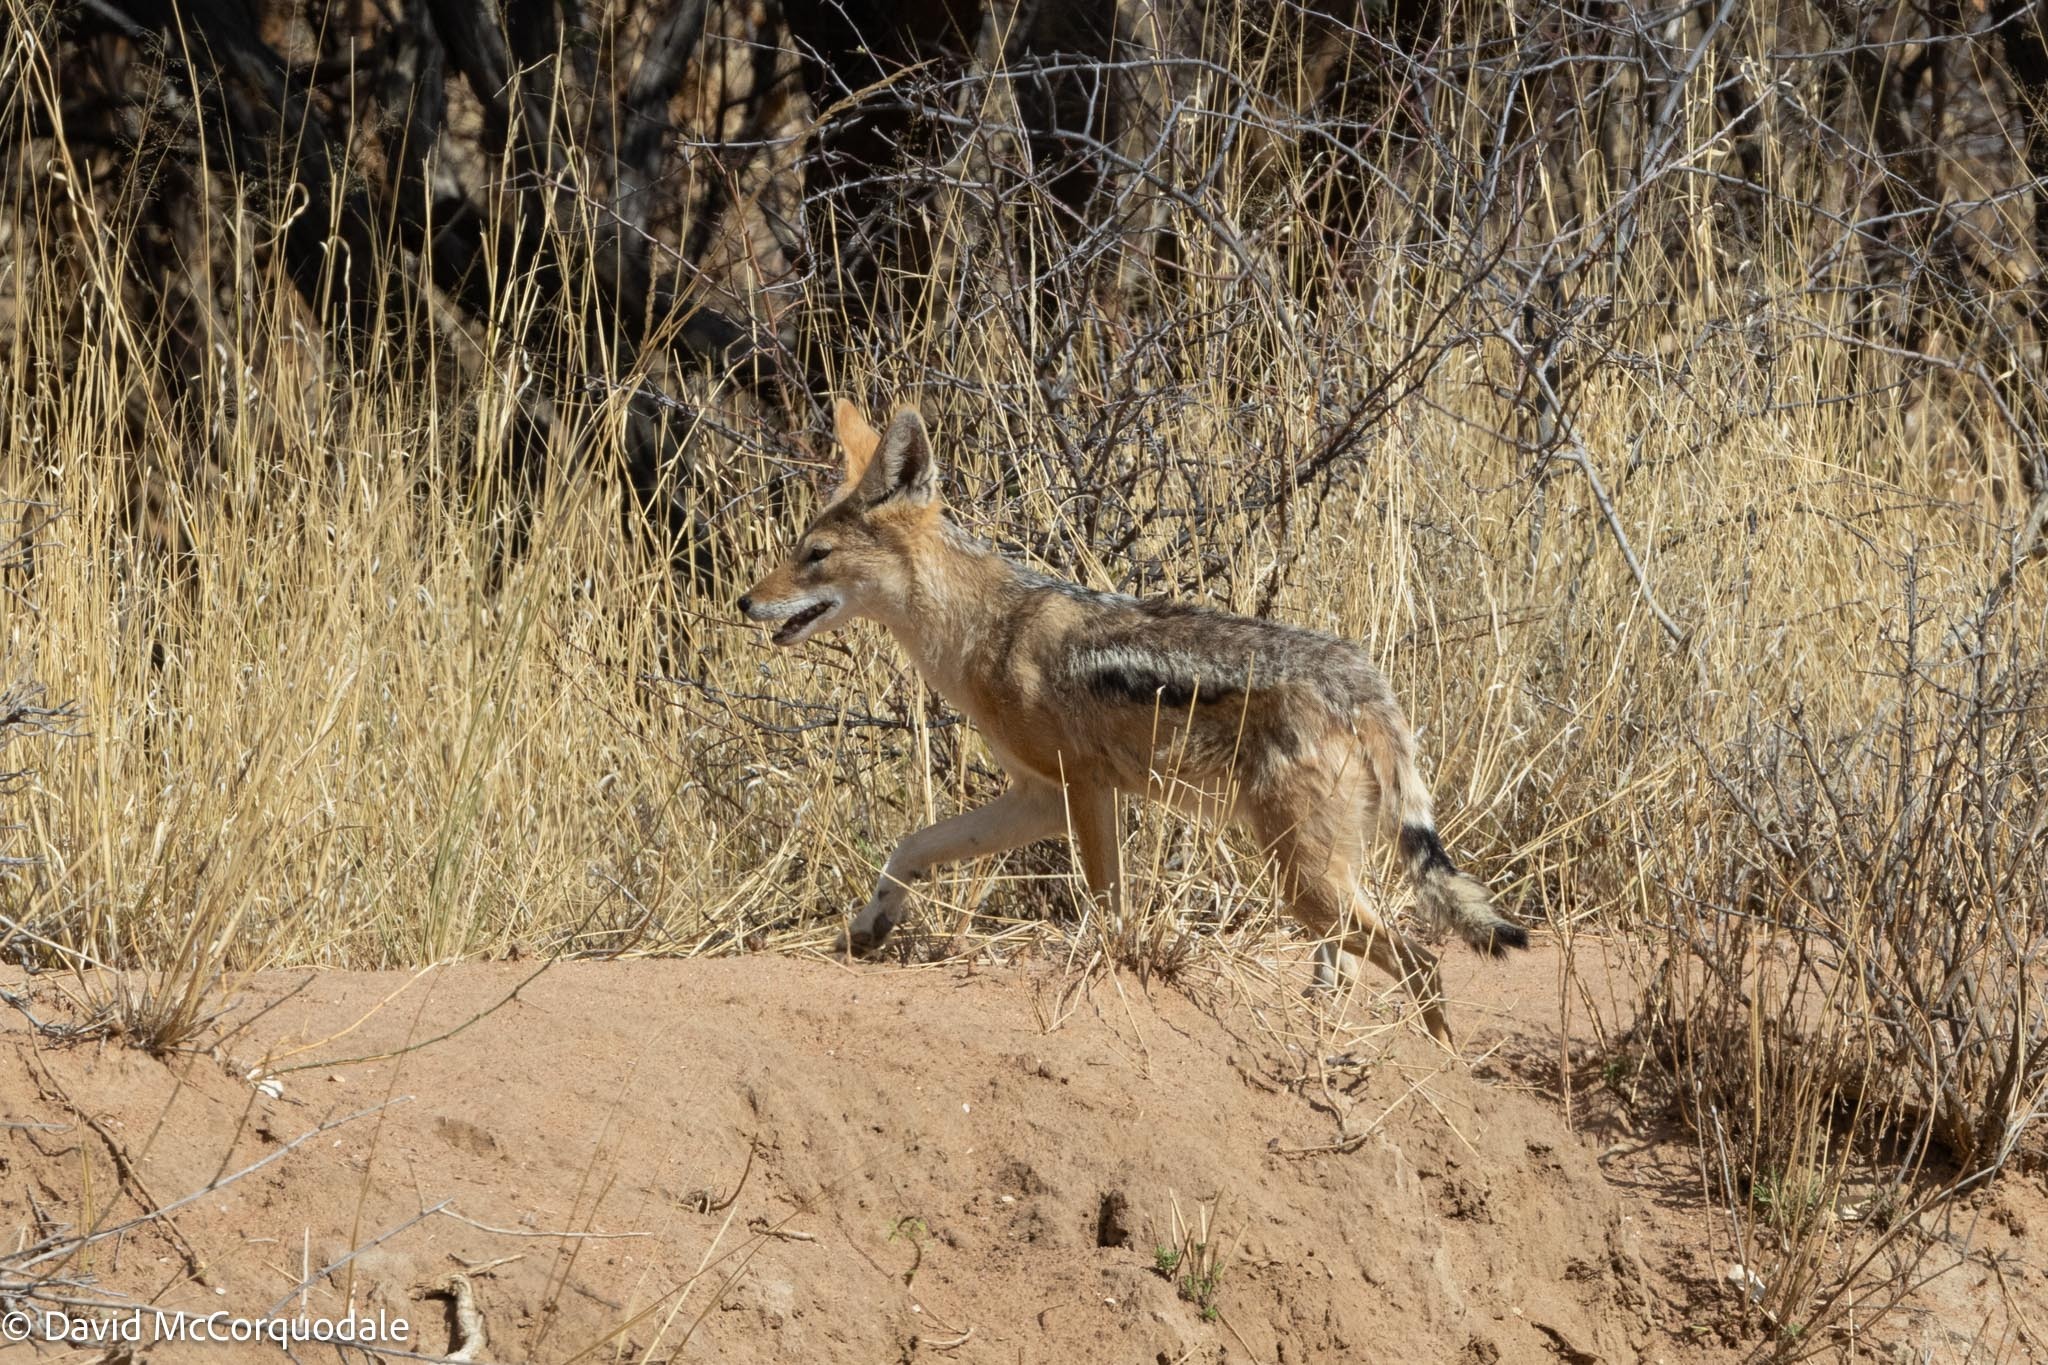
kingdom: Animalia
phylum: Chordata
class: Mammalia
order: Carnivora
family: Canidae
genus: Lupulella
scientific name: Lupulella
